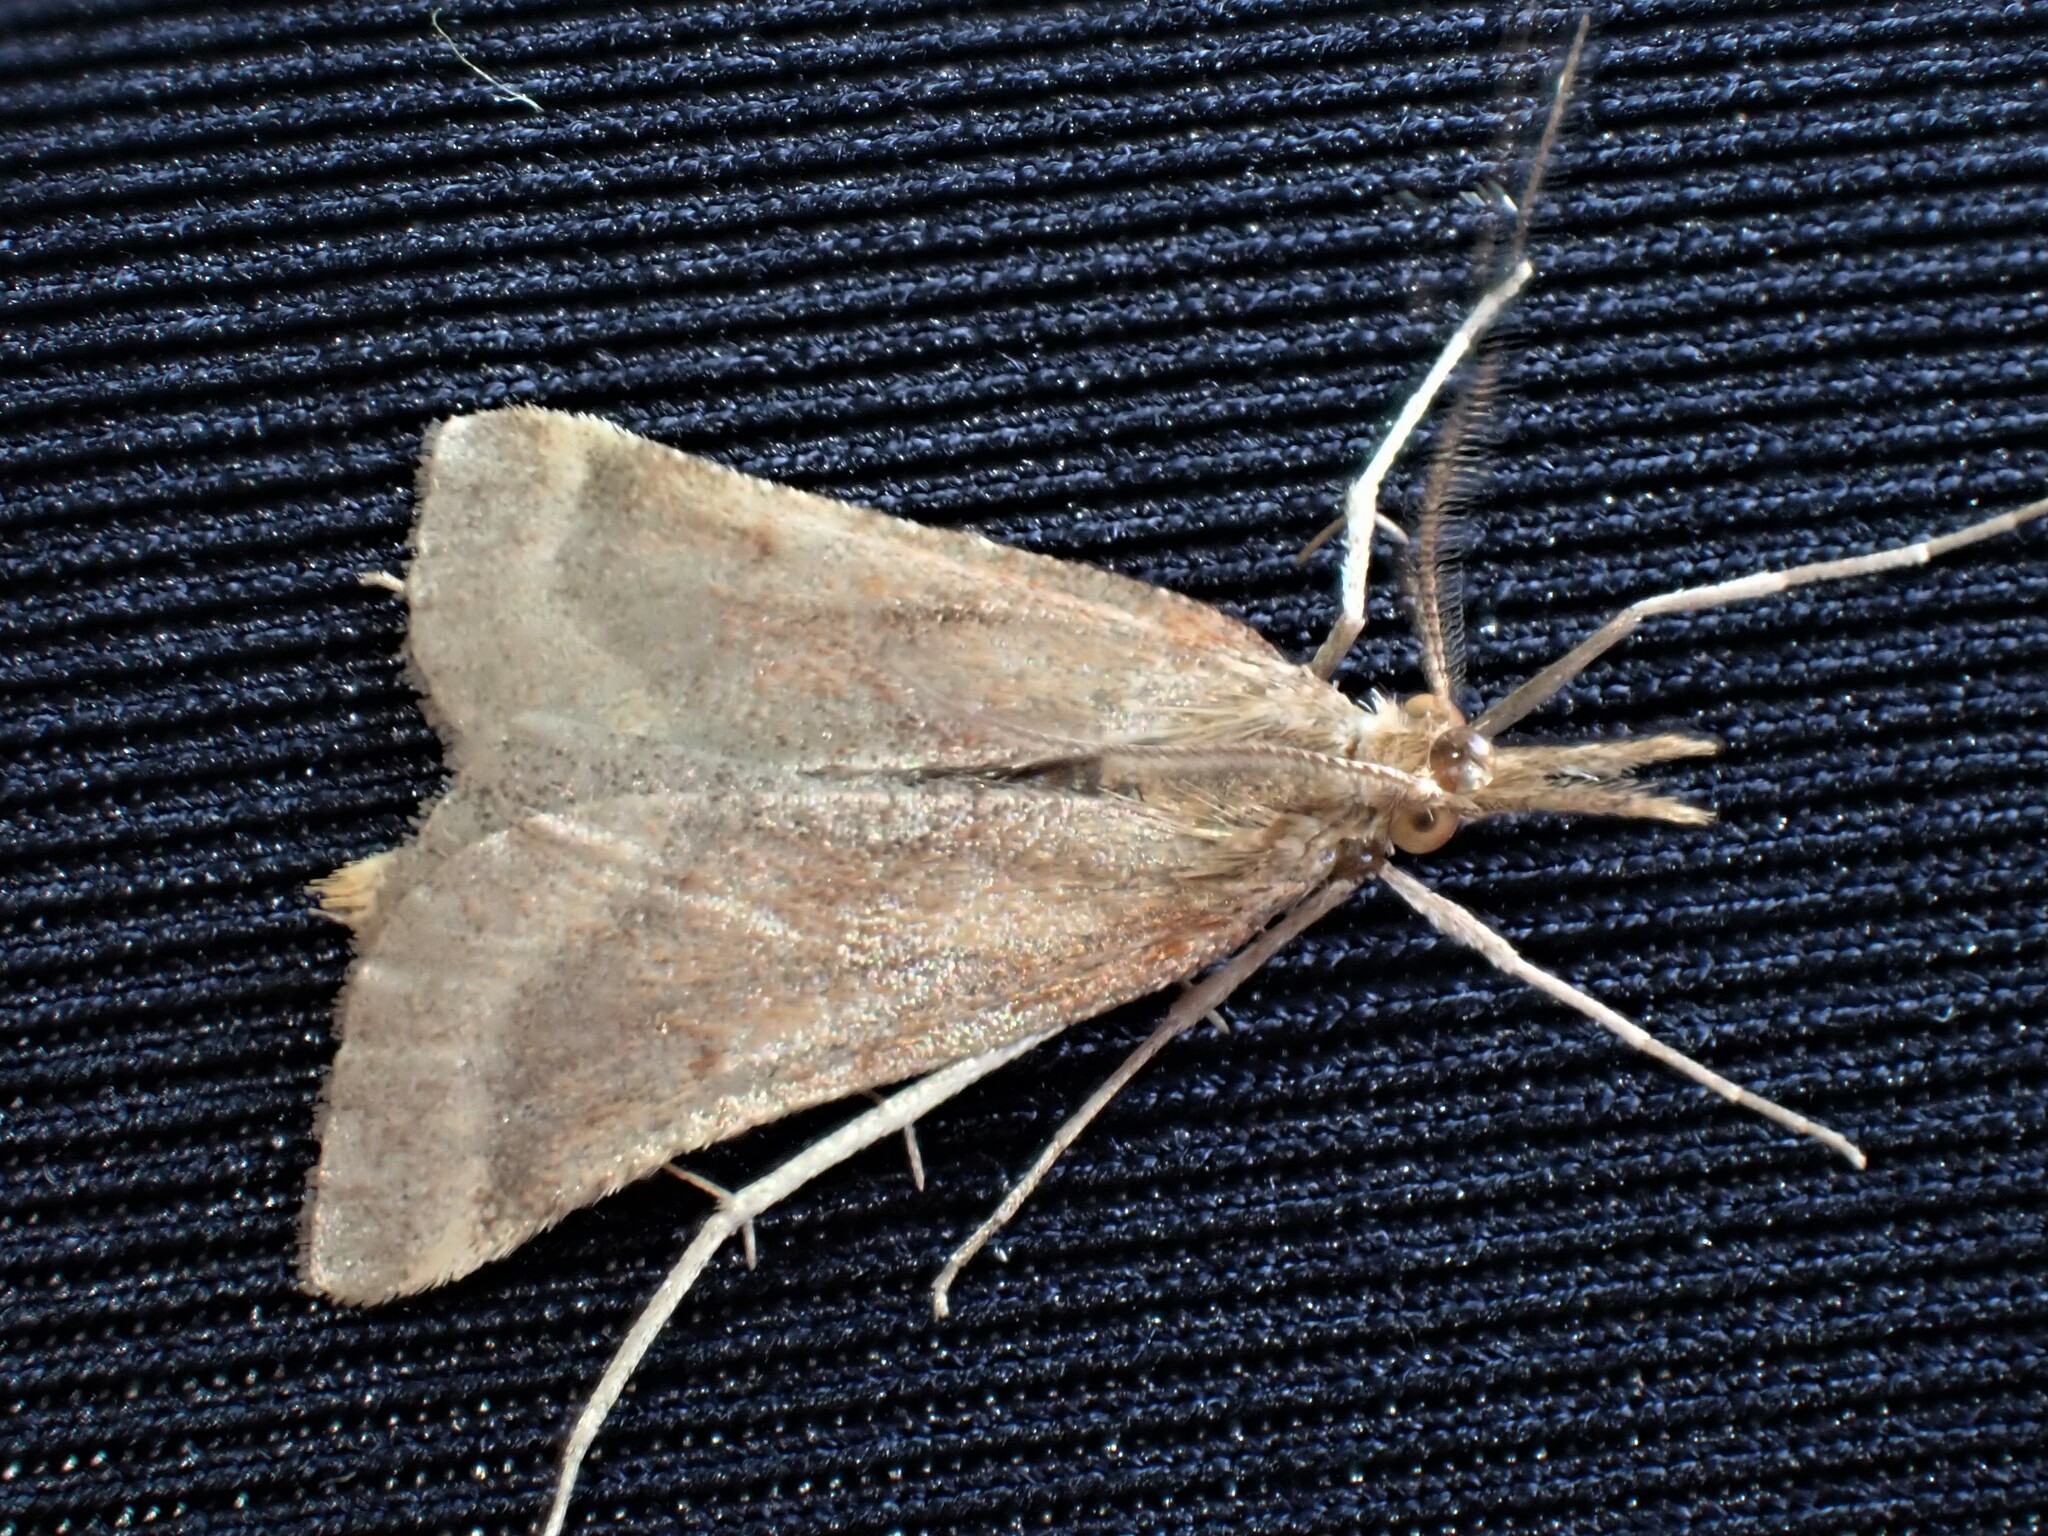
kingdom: Animalia
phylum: Arthropoda
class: Insecta
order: Lepidoptera
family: Pyralidae
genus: Synaphe
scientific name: Synaphe punctalis
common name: Long-legged tabby
